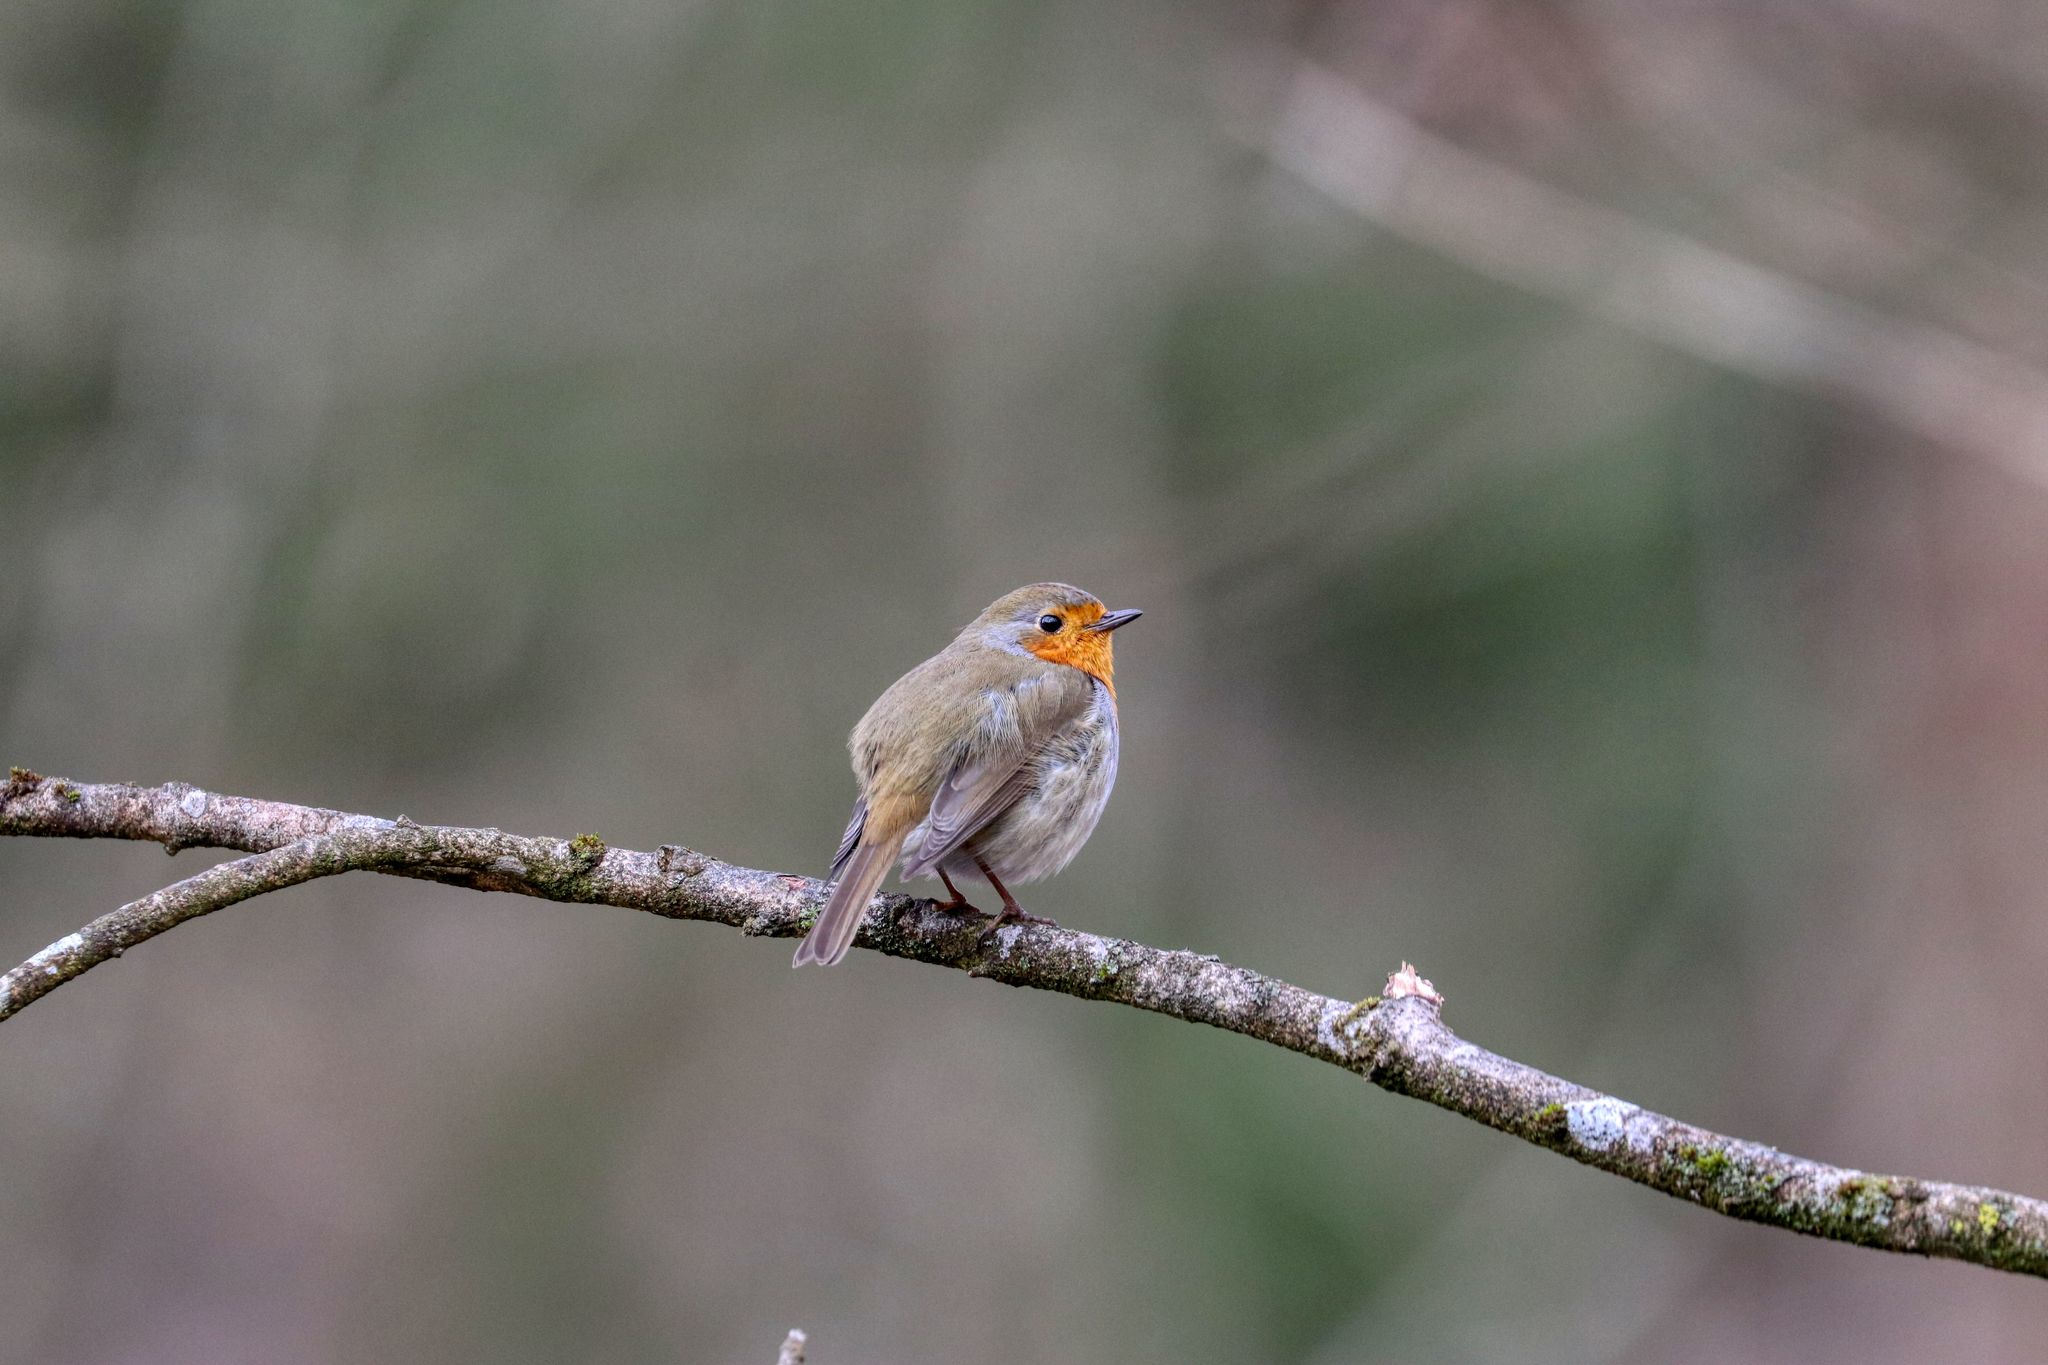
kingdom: Animalia
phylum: Chordata
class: Aves
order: Passeriformes
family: Muscicapidae
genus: Erithacus
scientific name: Erithacus rubecula
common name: European robin
